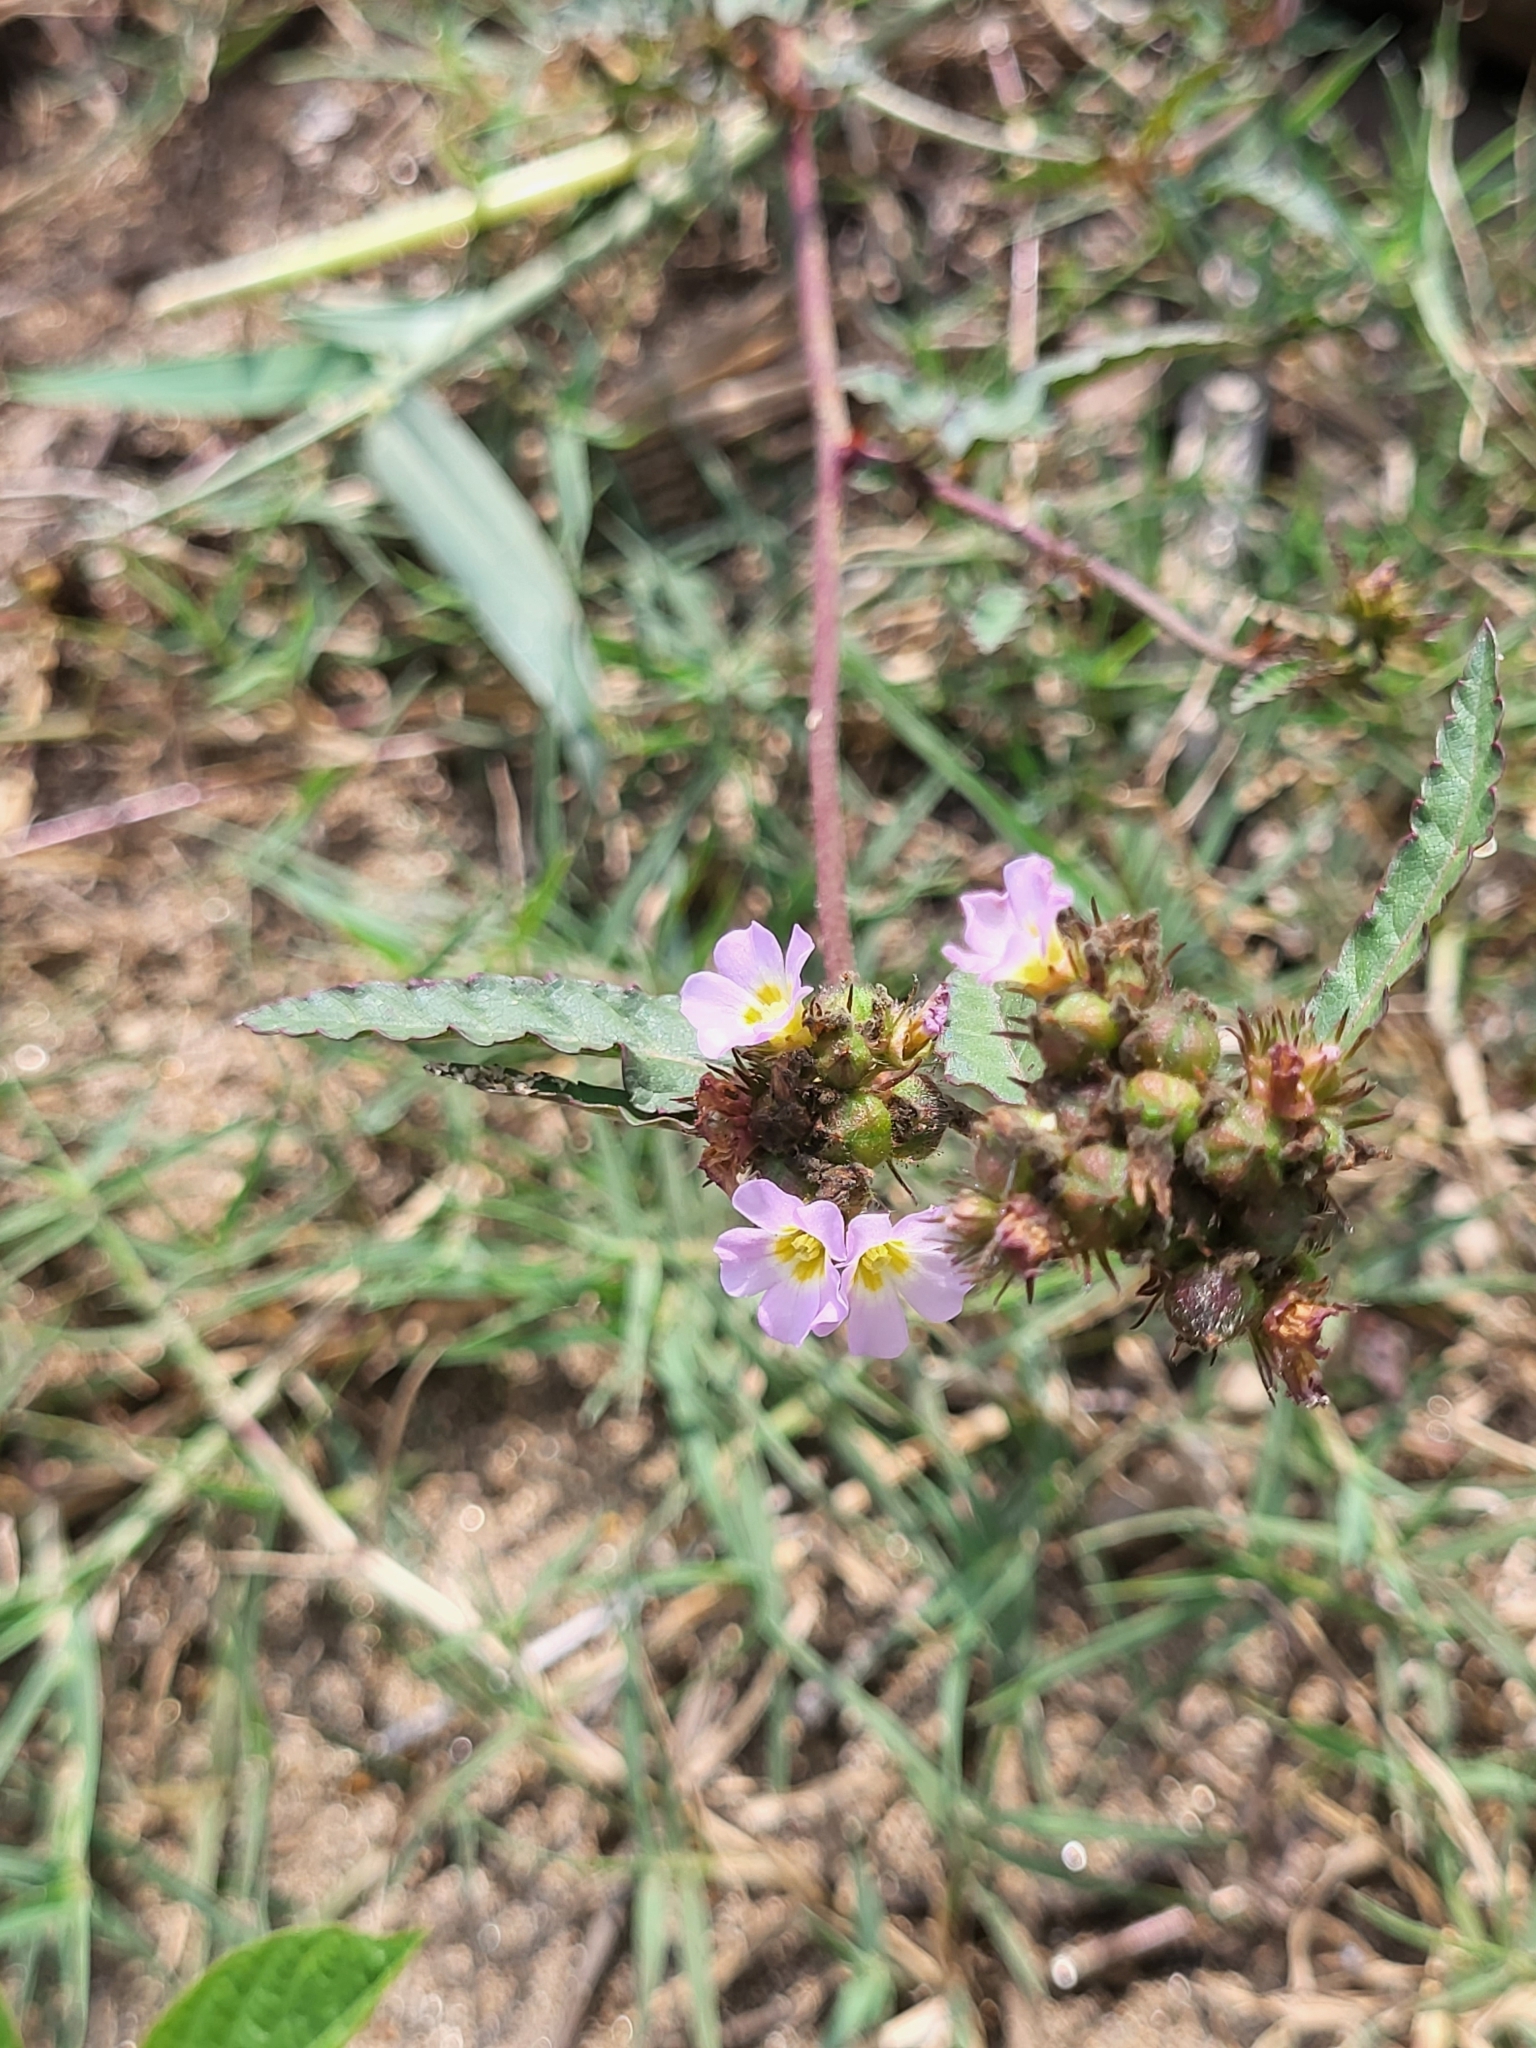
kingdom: Plantae
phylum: Tracheophyta
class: Magnoliopsida
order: Malvales
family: Malvaceae
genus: Melochia
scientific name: Melochia corchorifolia
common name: Chocolateweed
